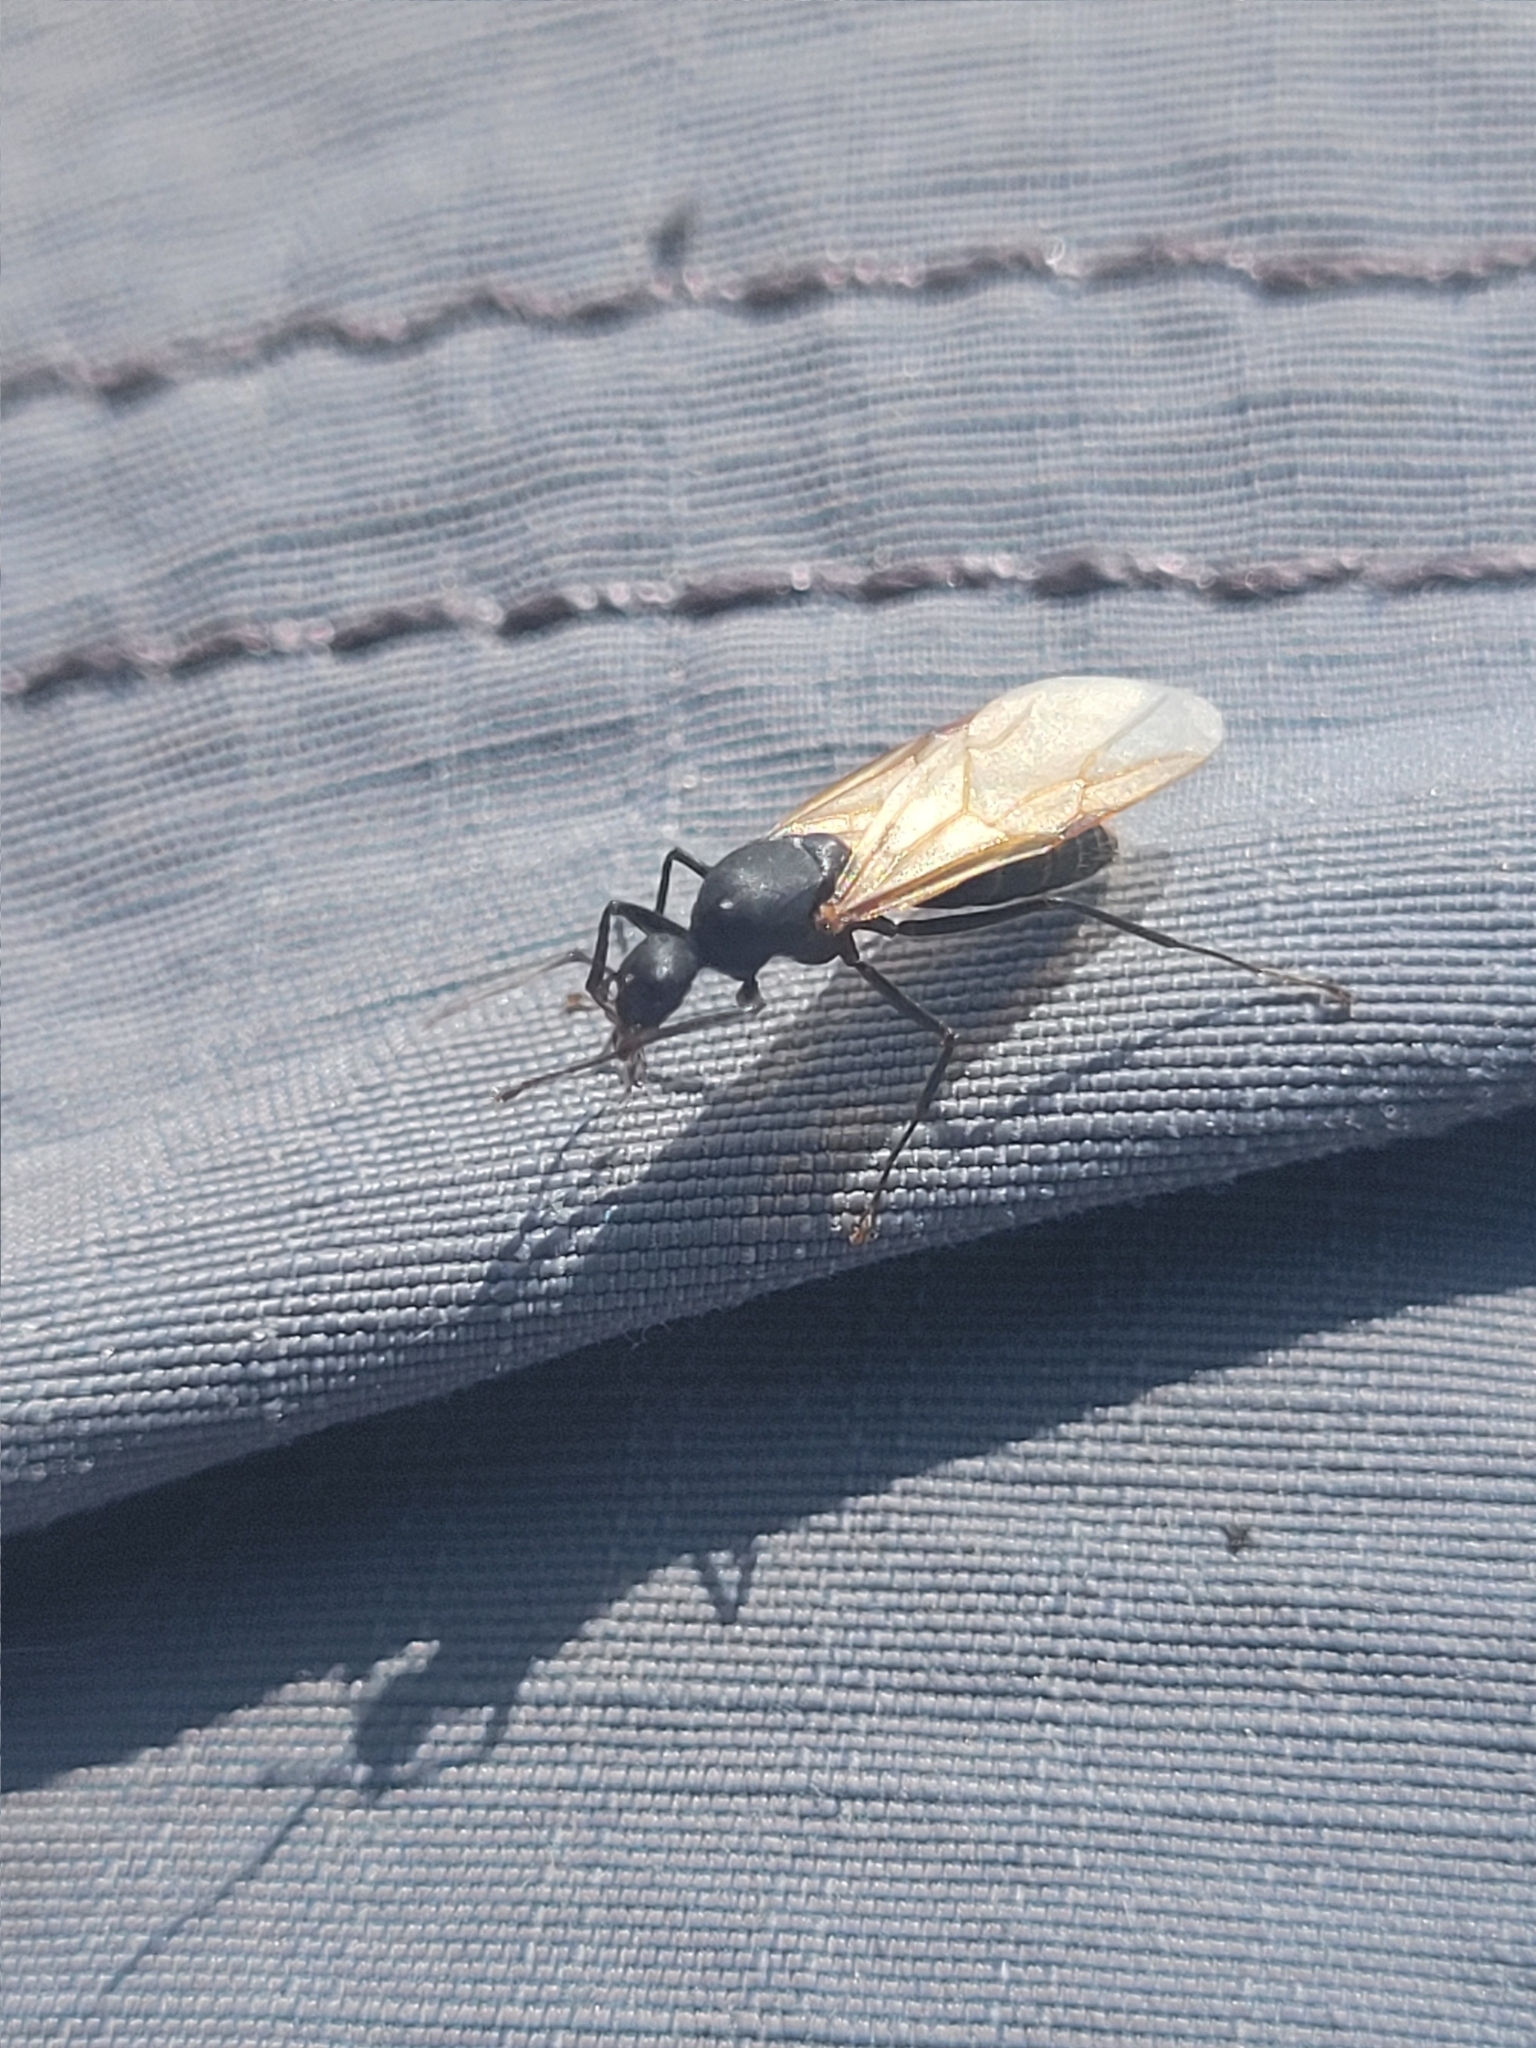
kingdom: Animalia
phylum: Arthropoda
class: Insecta
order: Hymenoptera
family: Formicidae
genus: Camponotus
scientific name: Camponotus pennsylvanicus
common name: Black carpenter ant
